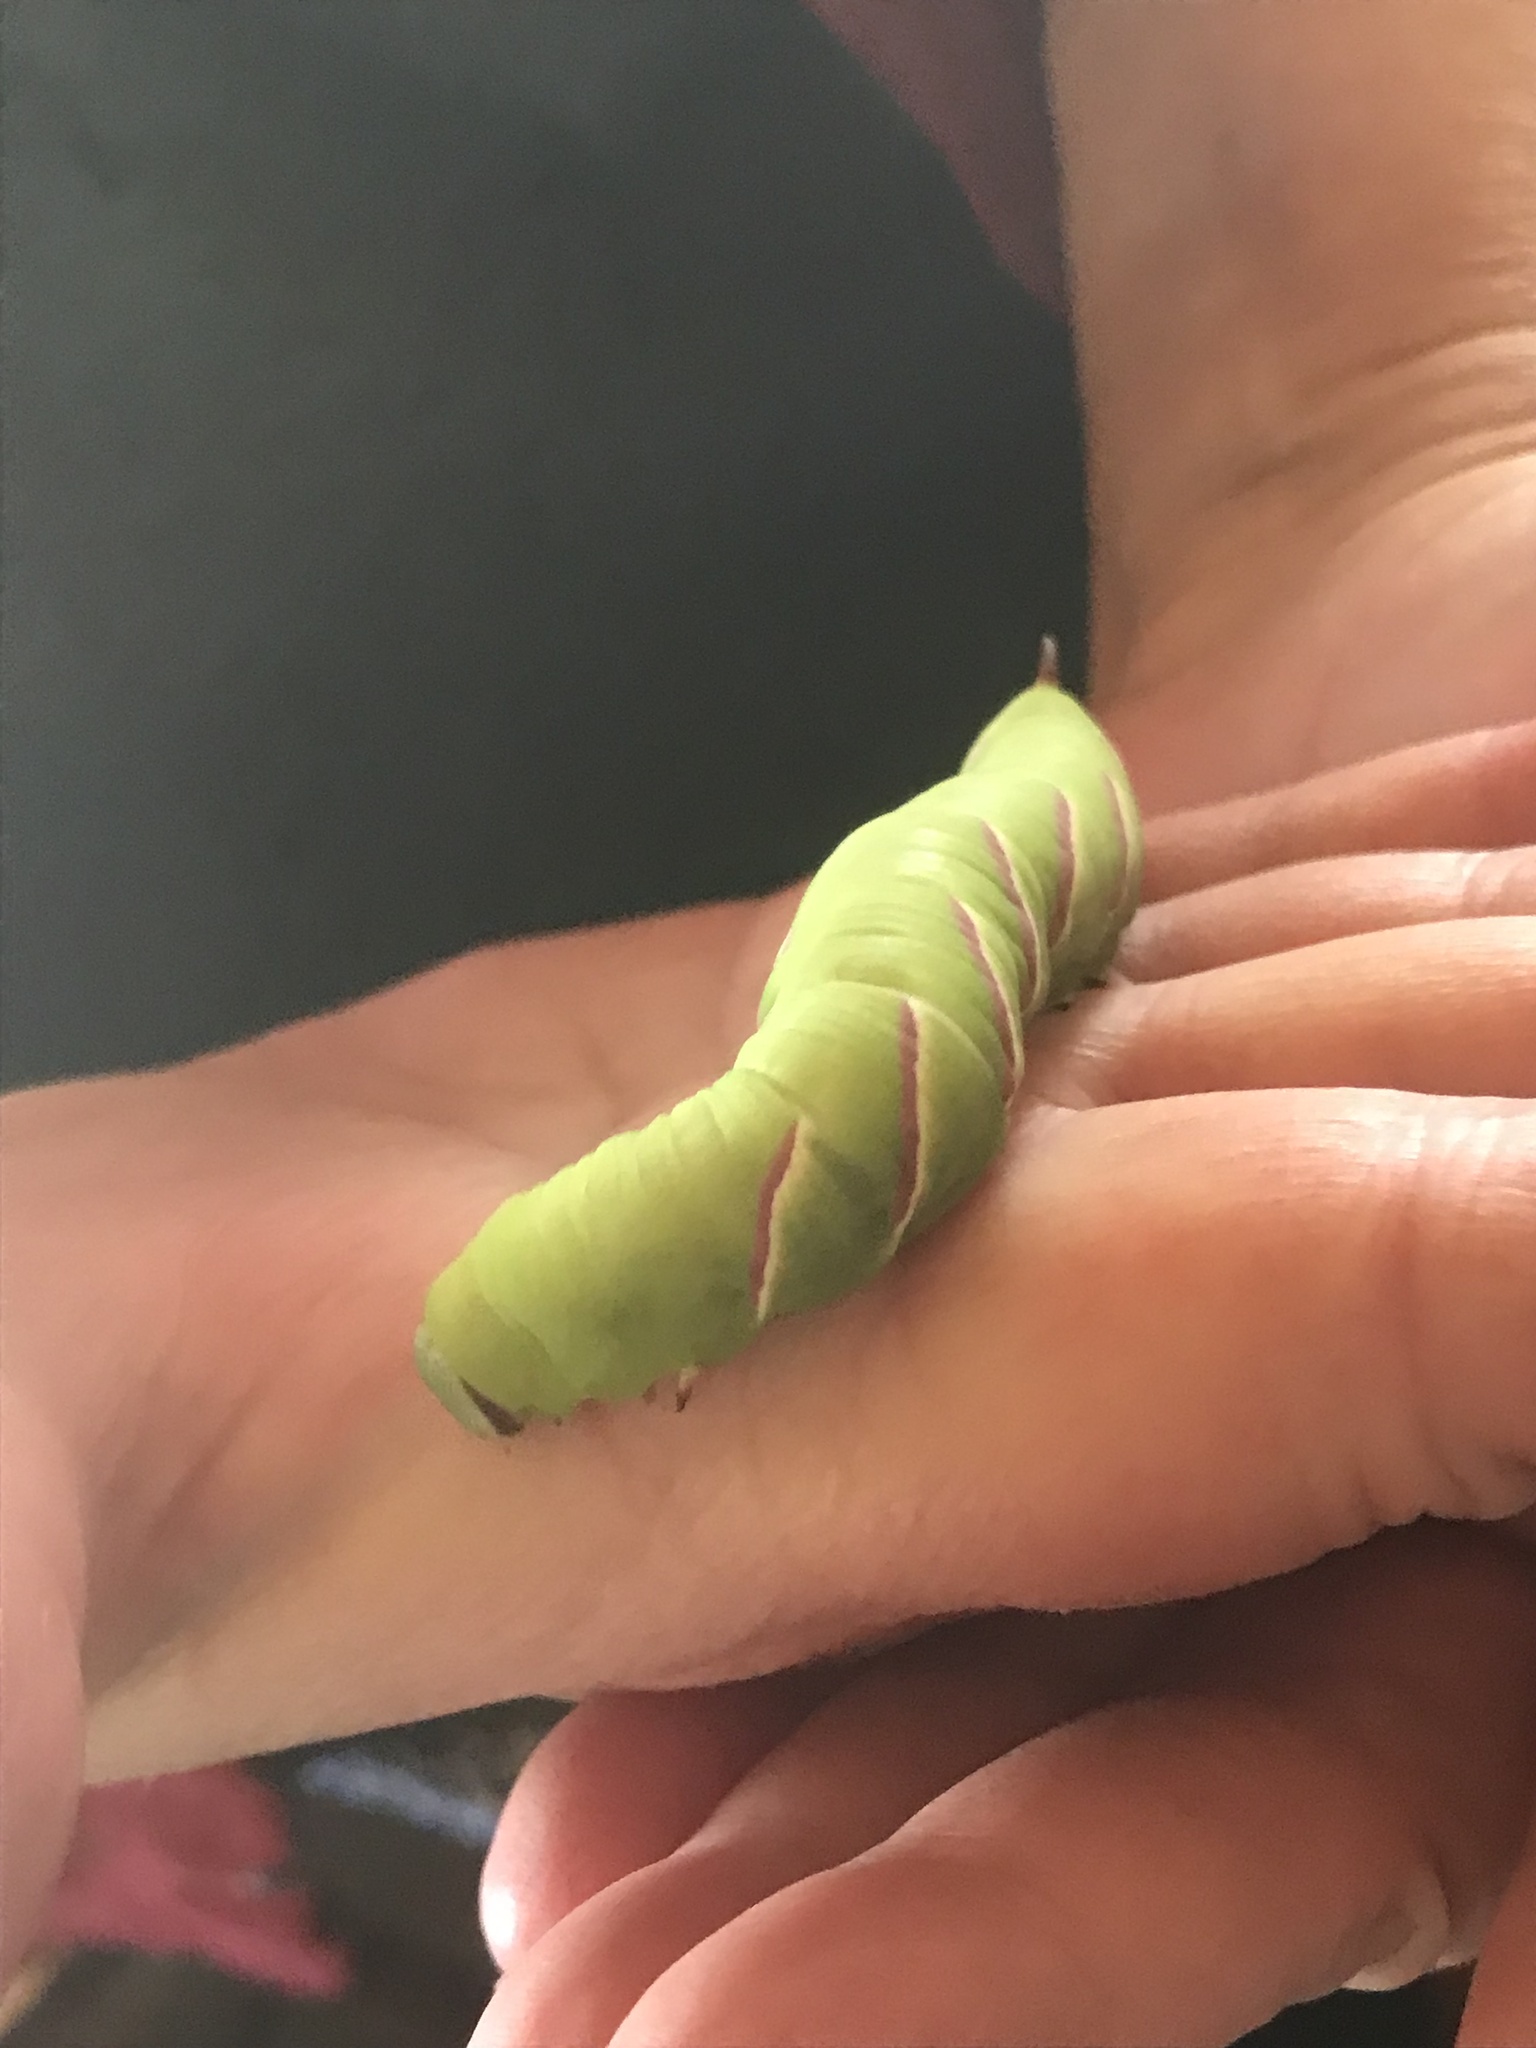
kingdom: Animalia
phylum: Arthropoda
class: Insecta
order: Lepidoptera
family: Sphingidae
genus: Sphinx
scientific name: Sphinx drupiferarum
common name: Wild cherry sphinx
